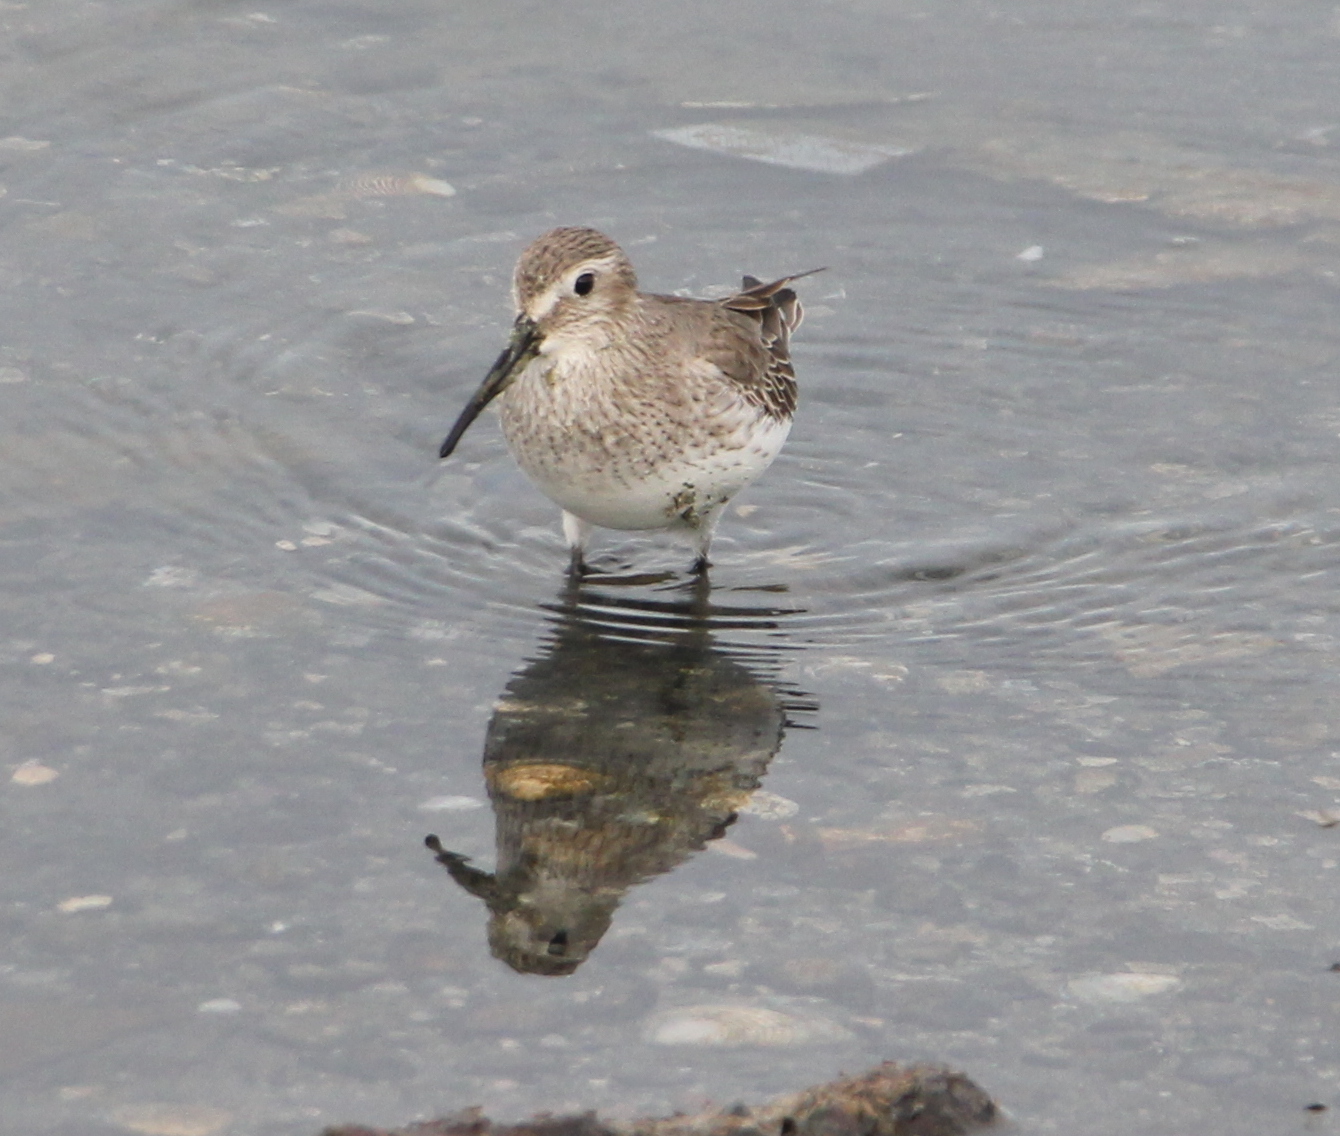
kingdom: Animalia
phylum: Chordata
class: Aves
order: Charadriiformes
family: Scolopacidae
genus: Calidris
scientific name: Calidris alpina
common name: Dunlin
